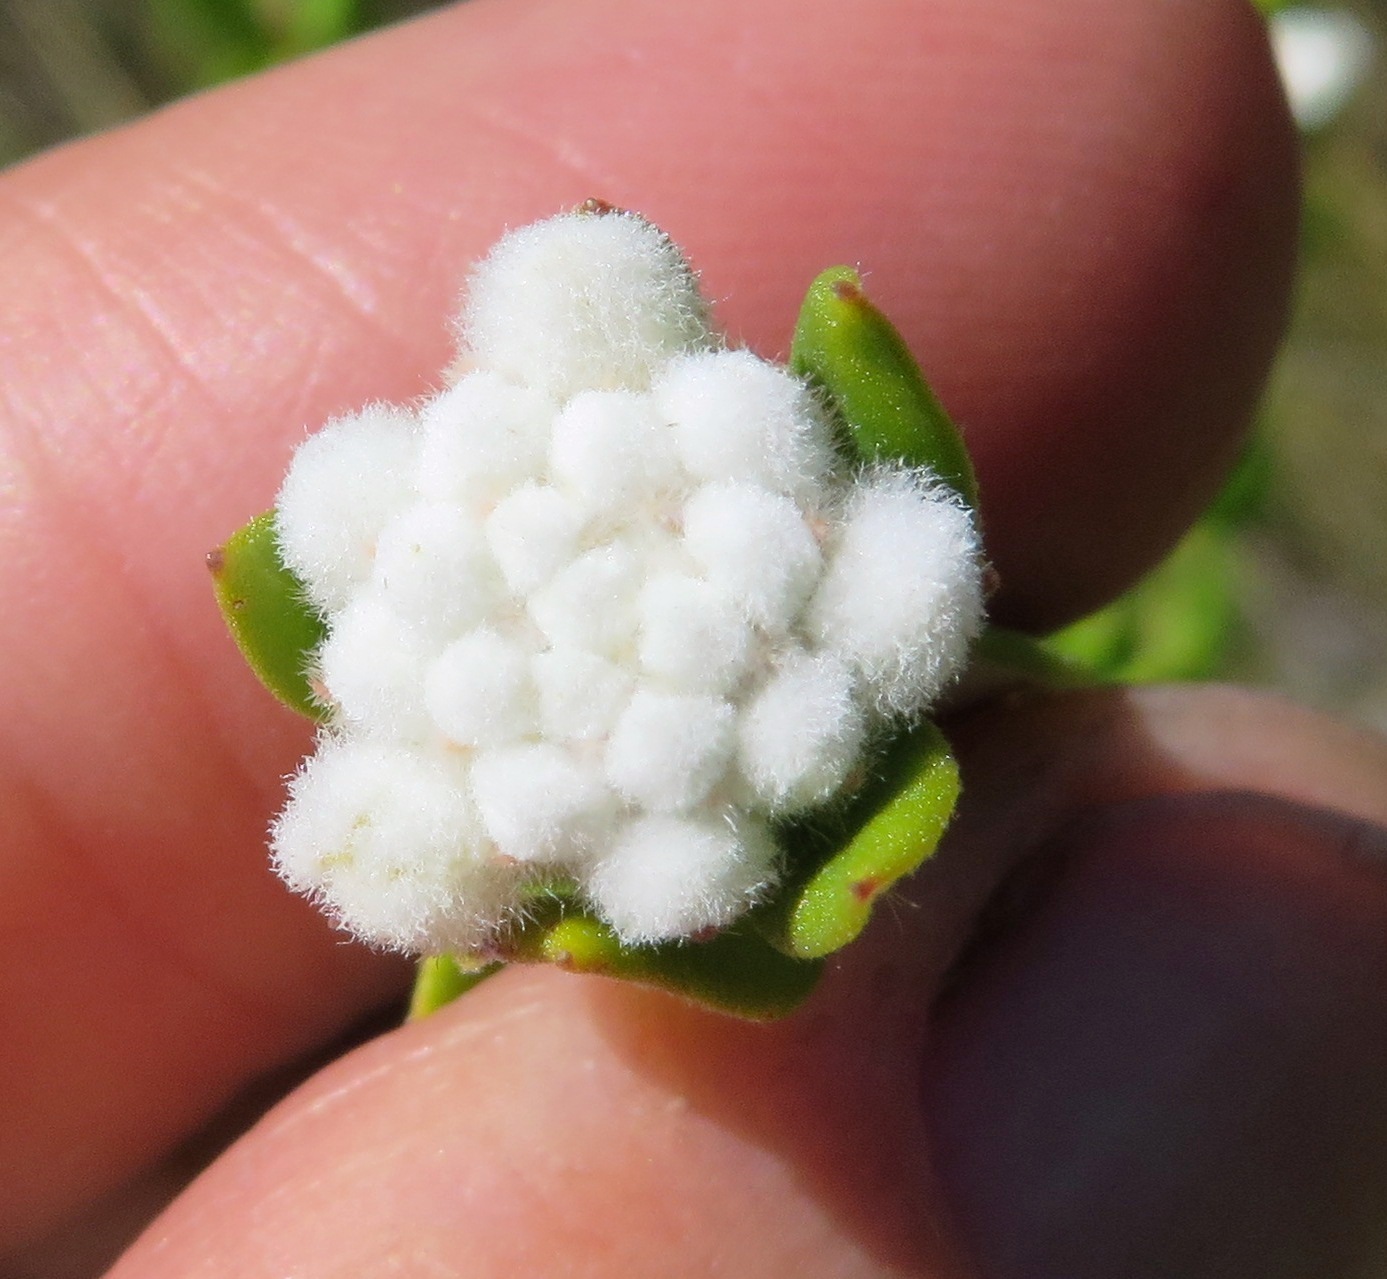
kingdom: Plantae
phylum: Tracheophyta
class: Magnoliopsida
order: Rosales
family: Rhamnaceae
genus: Phylica
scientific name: Phylica nervosa
